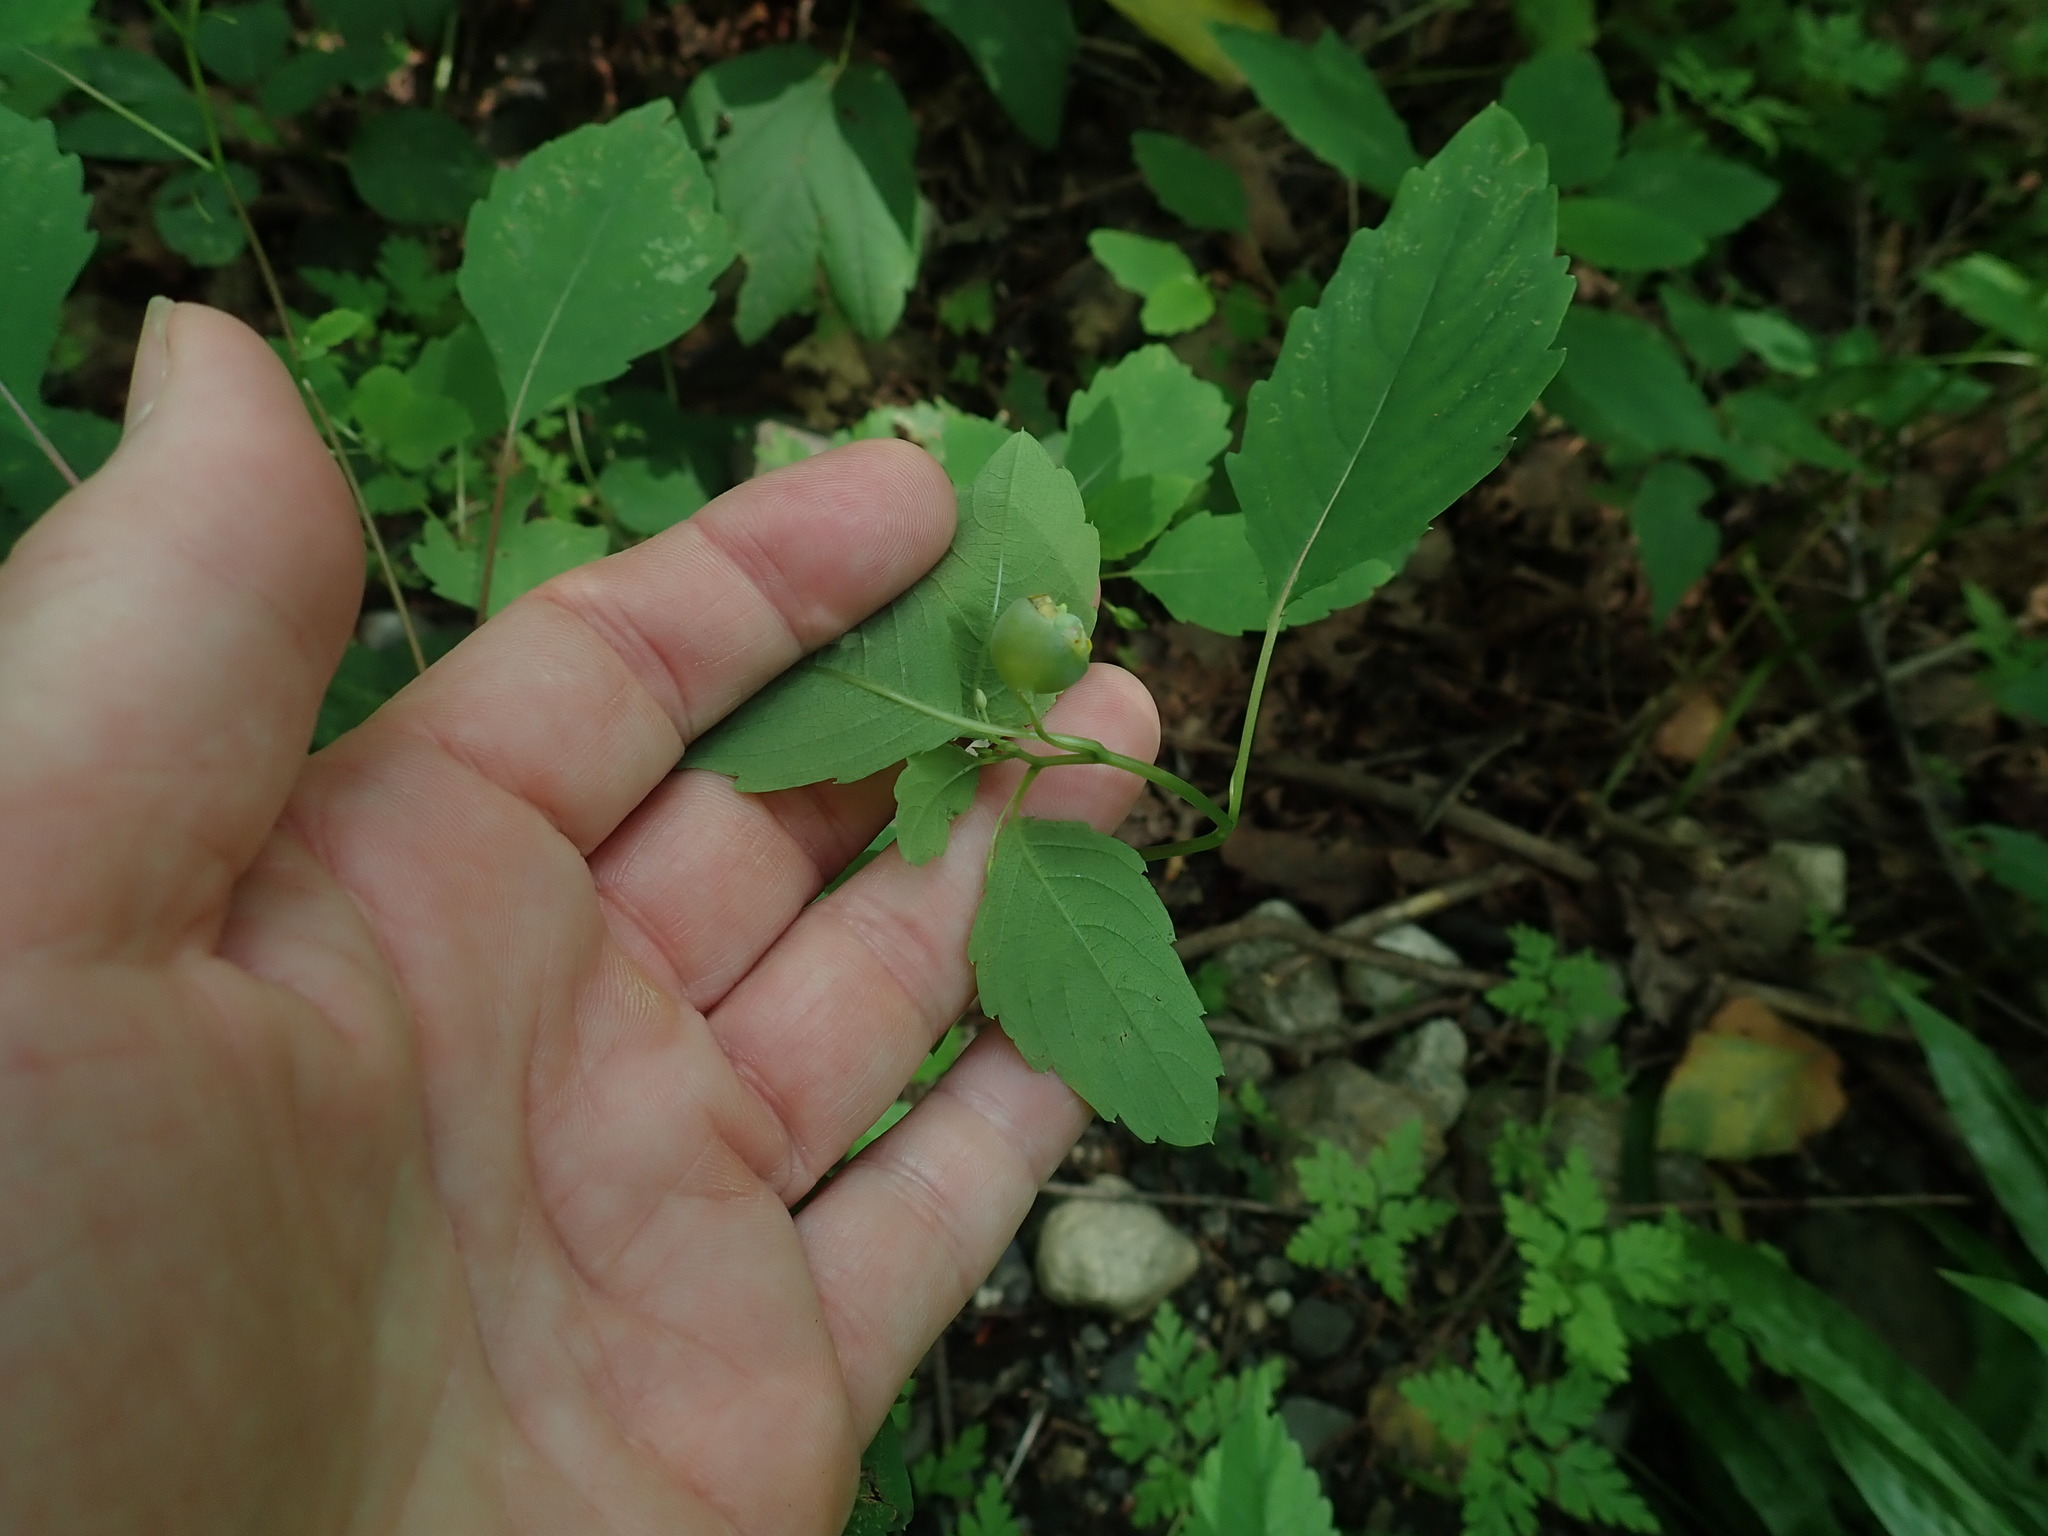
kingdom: Animalia
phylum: Arthropoda
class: Insecta
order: Diptera
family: Cecidomyiidae
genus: Schizomyia
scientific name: Schizomyia impatientis
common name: Jewelweed gall midge
